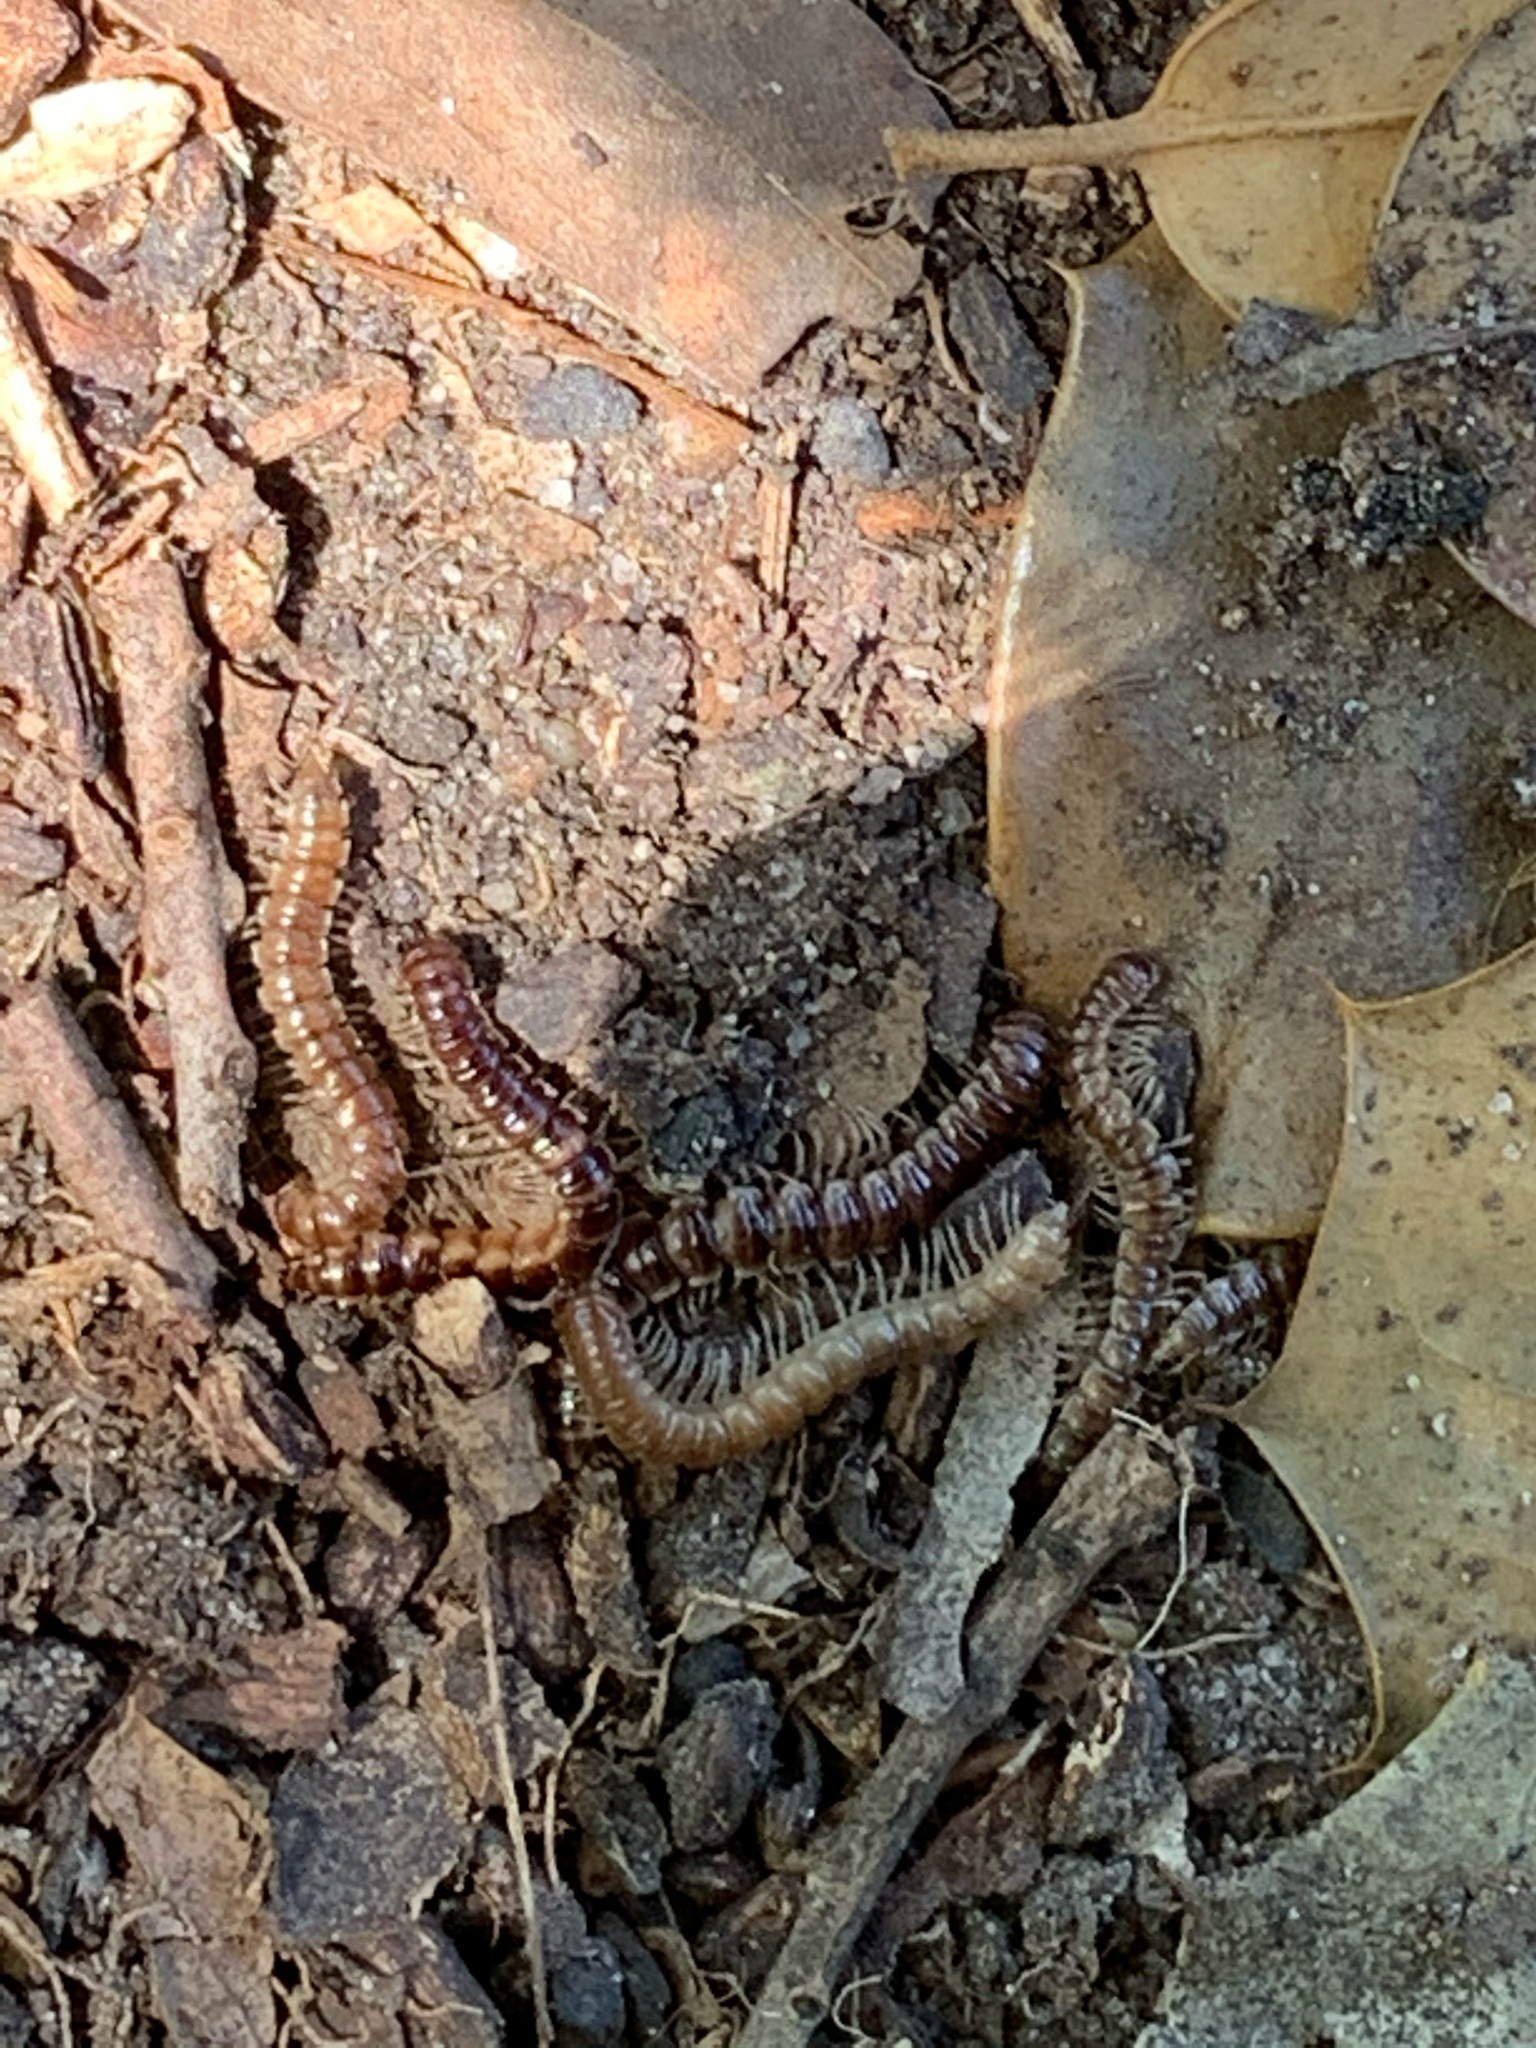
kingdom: Animalia
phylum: Arthropoda
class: Diplopoda
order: Polydesmida
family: Paradoxosomatidae
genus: Oxidus
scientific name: Oxidus gracilis
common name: Greenhouse millipede
